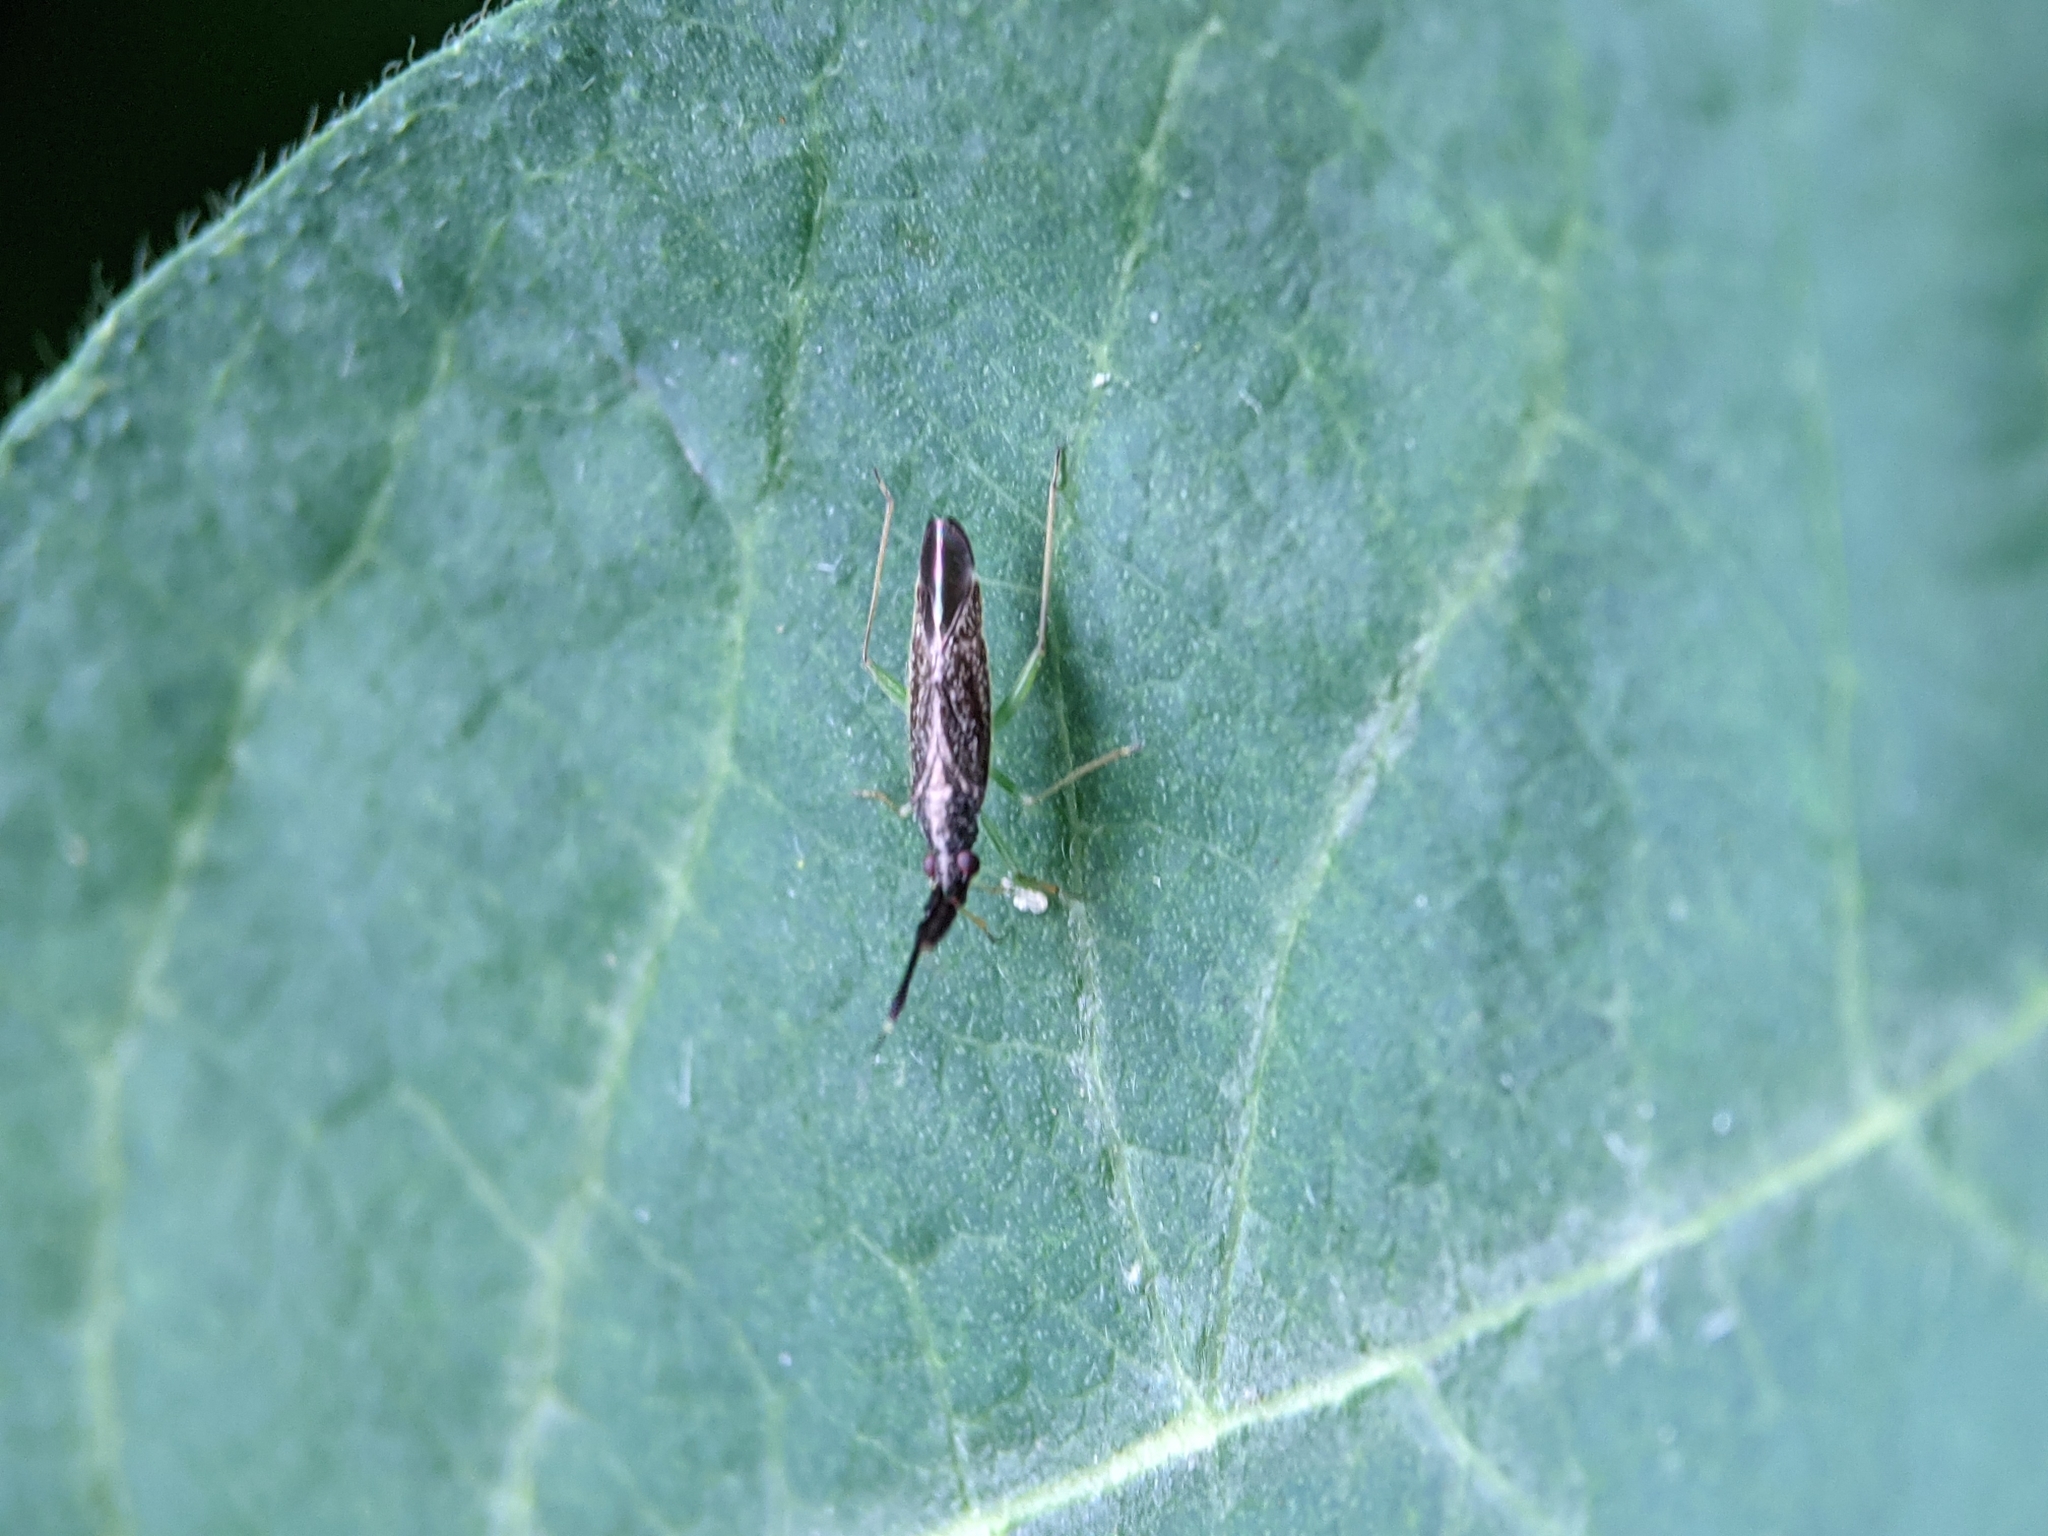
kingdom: Animalia
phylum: Arthropoda
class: Insecta
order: Hemiptera
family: Miridae
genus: Heterotoma
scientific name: Heterotoma planicornis
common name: Plant bug
